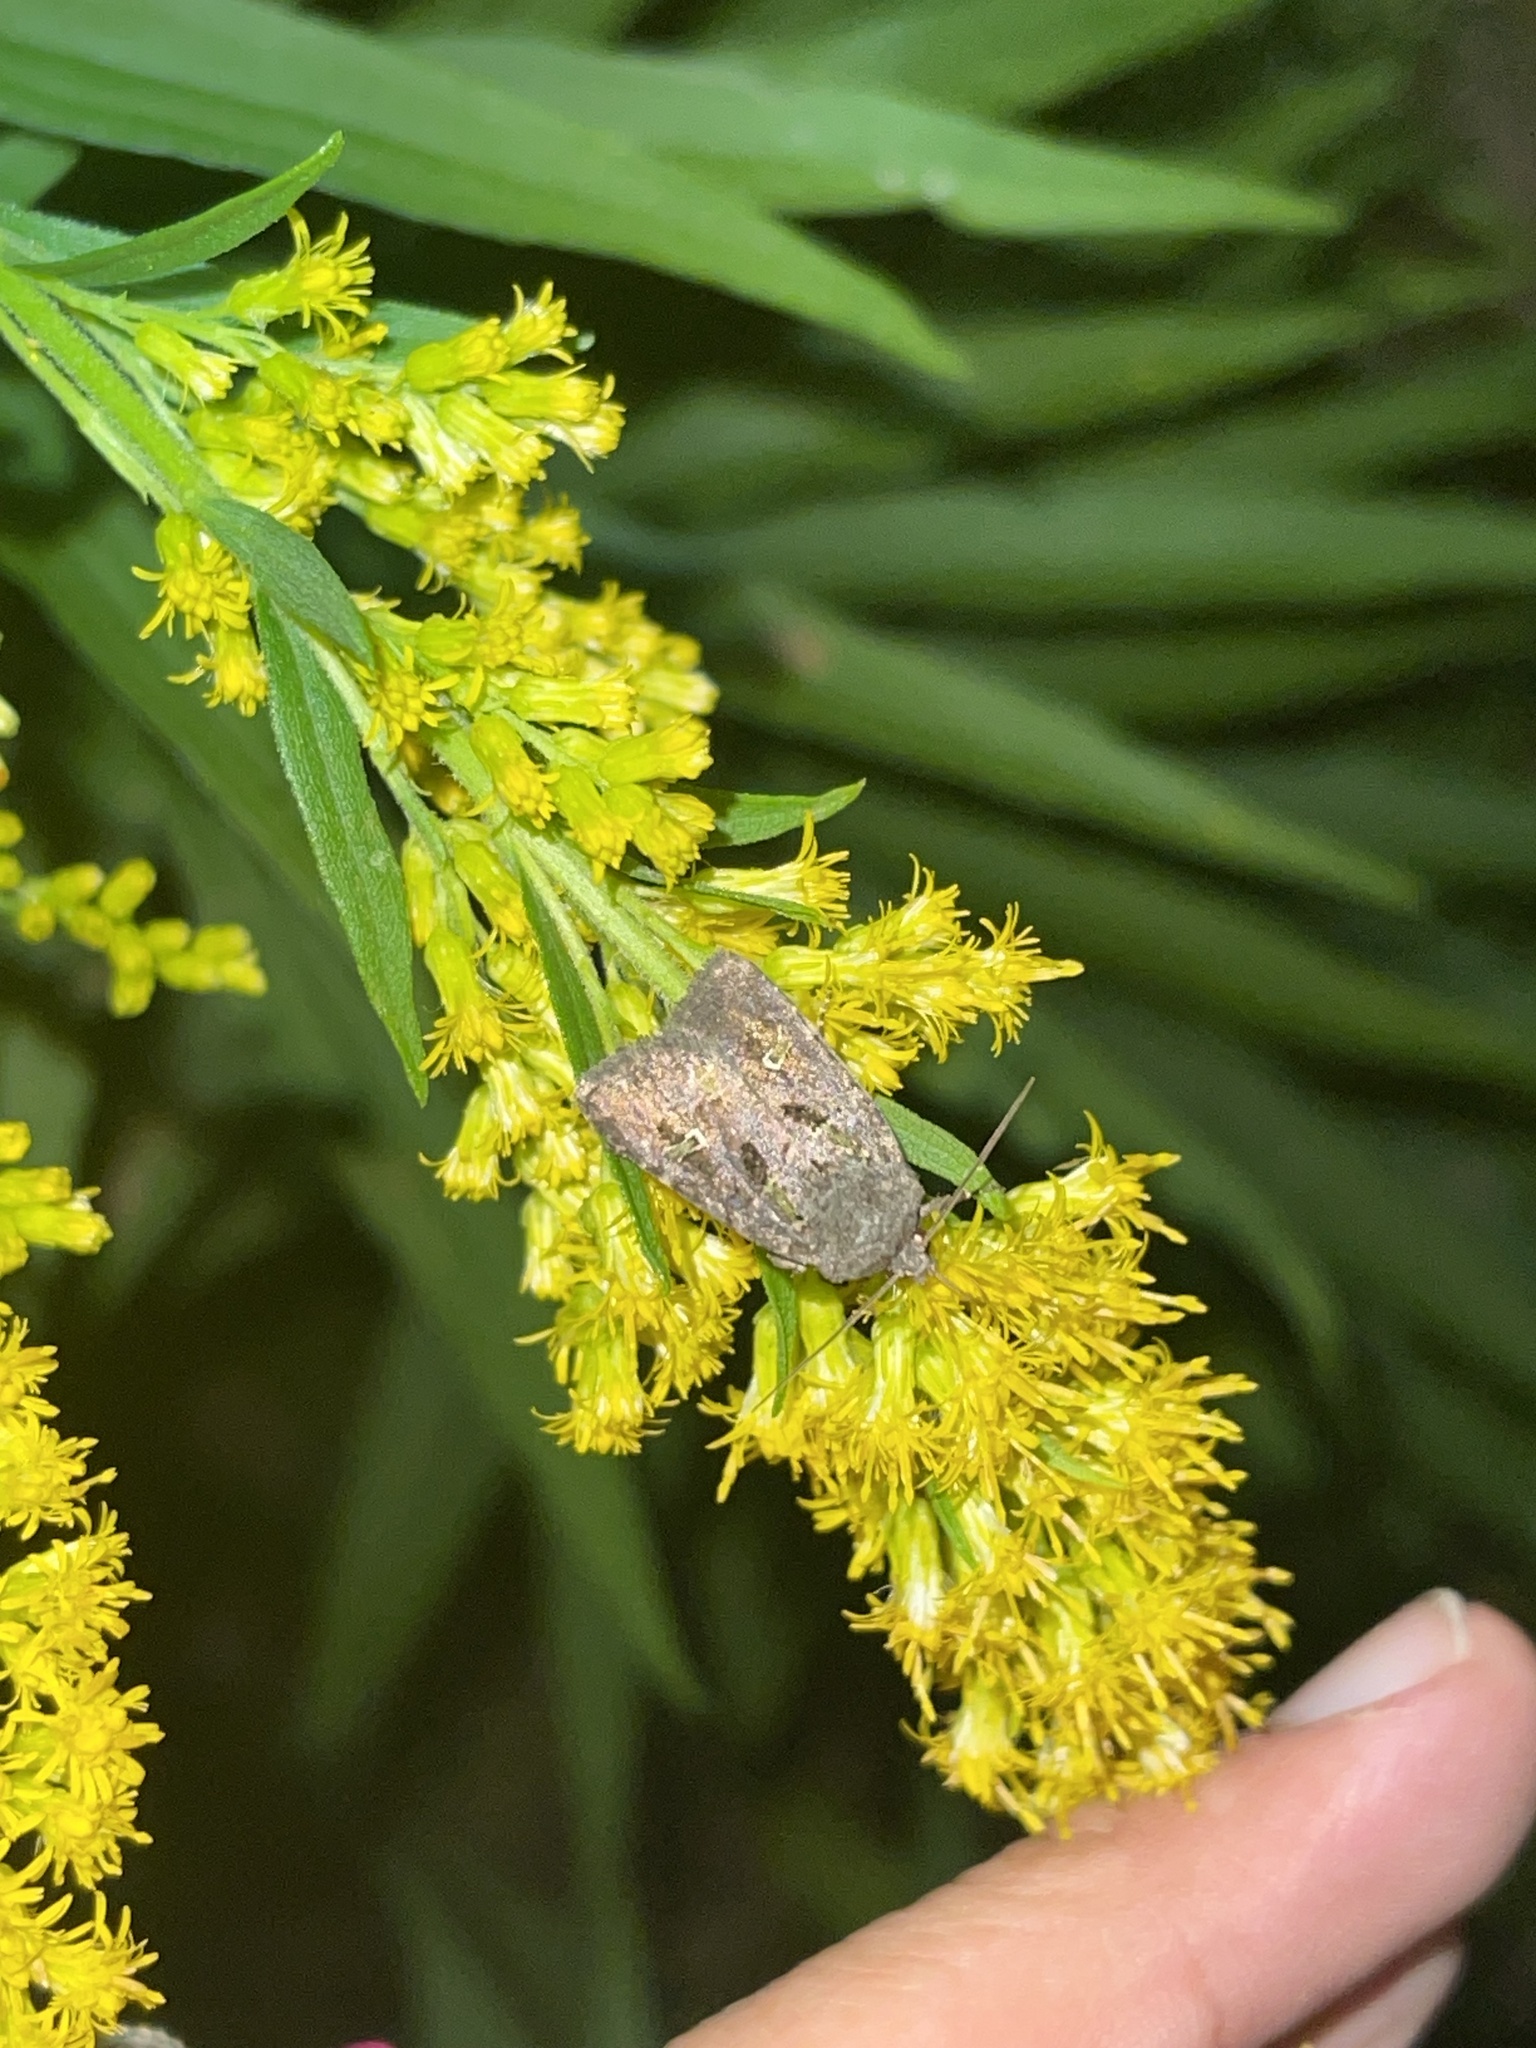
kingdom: Animalia
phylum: Arthropoda
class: Insecta
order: Lepidoptera
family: Noctuidae
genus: Lacinipolia
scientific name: Lacinipolia renigera
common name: Kidney-spotted minor
